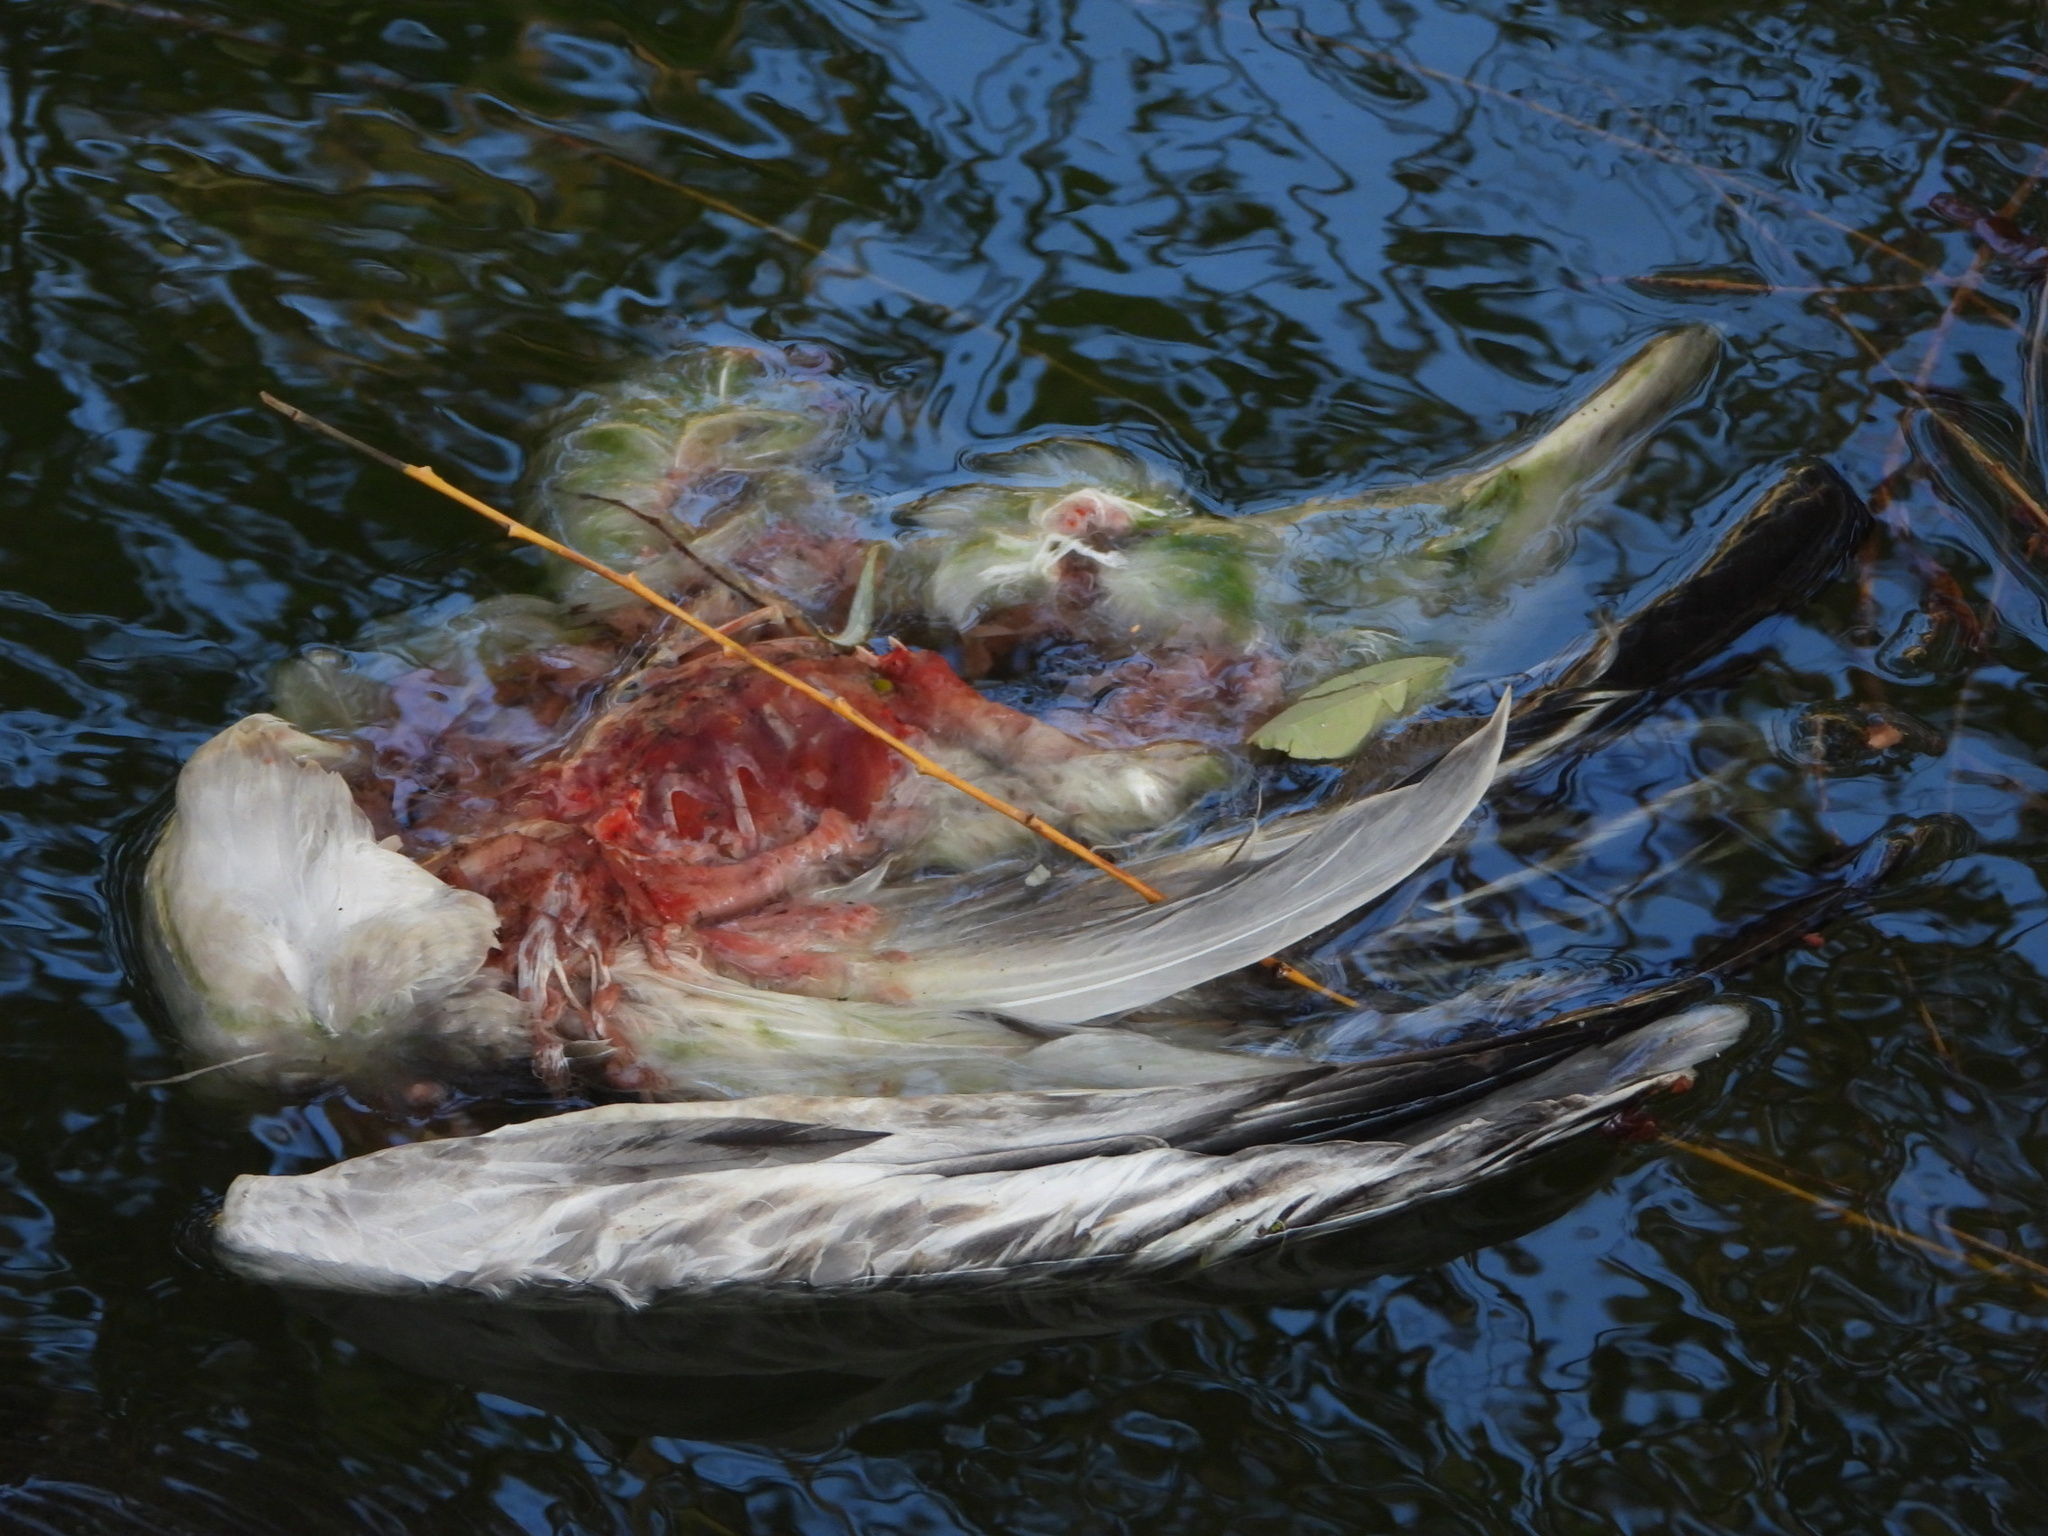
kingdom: Animalia
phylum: Chordata
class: Aves
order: Anseriformes
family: Anatidae
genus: Anser
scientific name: Anser caerulescens
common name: Snow goose
